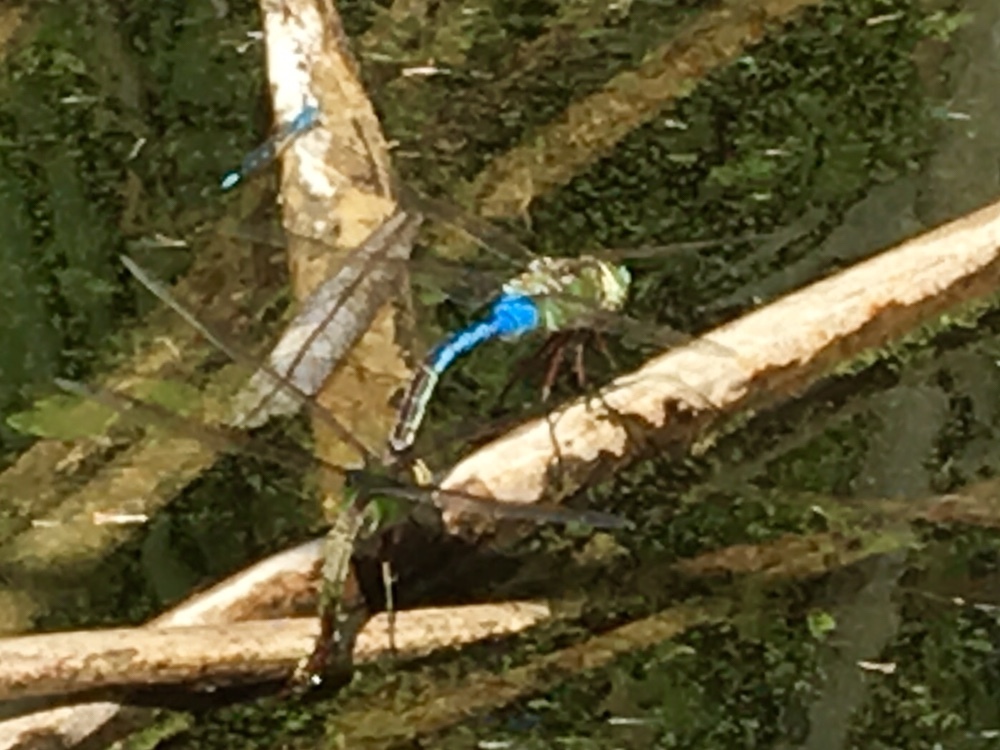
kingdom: Animalia
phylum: Arthropoda
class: Insecta
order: Odonata
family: Aeshnidae
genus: Anax
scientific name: Anax junius
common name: Common green darner
